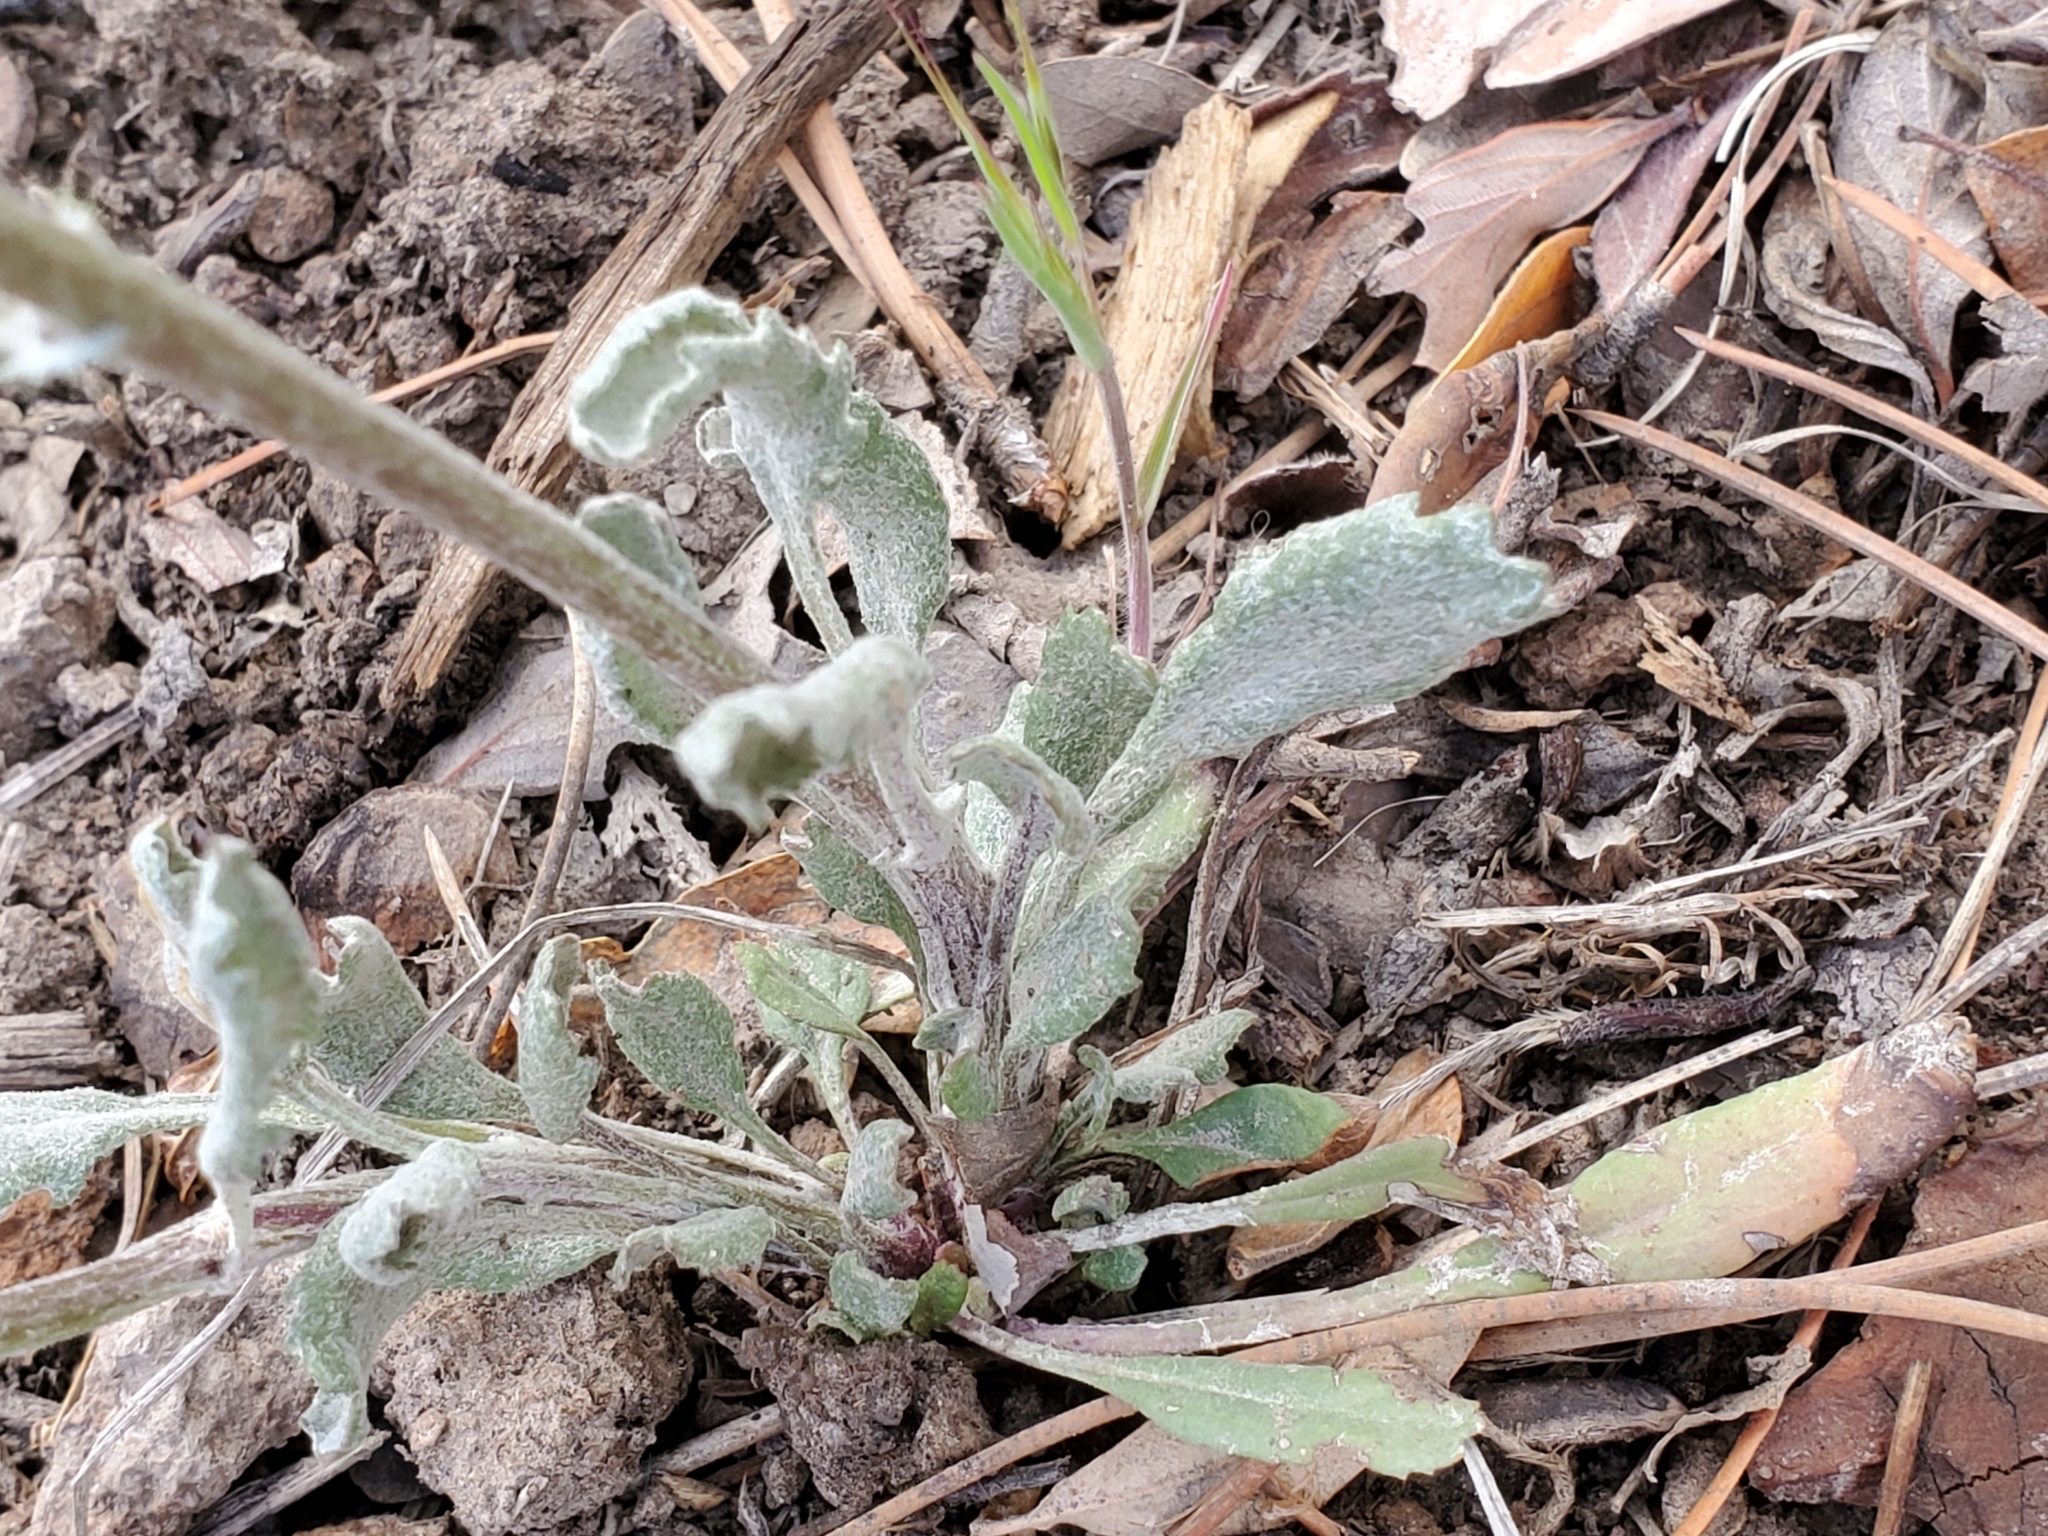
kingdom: Plantae
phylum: Tracheophyta
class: Magnoliopsida
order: Asterales
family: Asteraceae
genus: Packera
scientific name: Packera neomexicana
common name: New mexico butterweed
